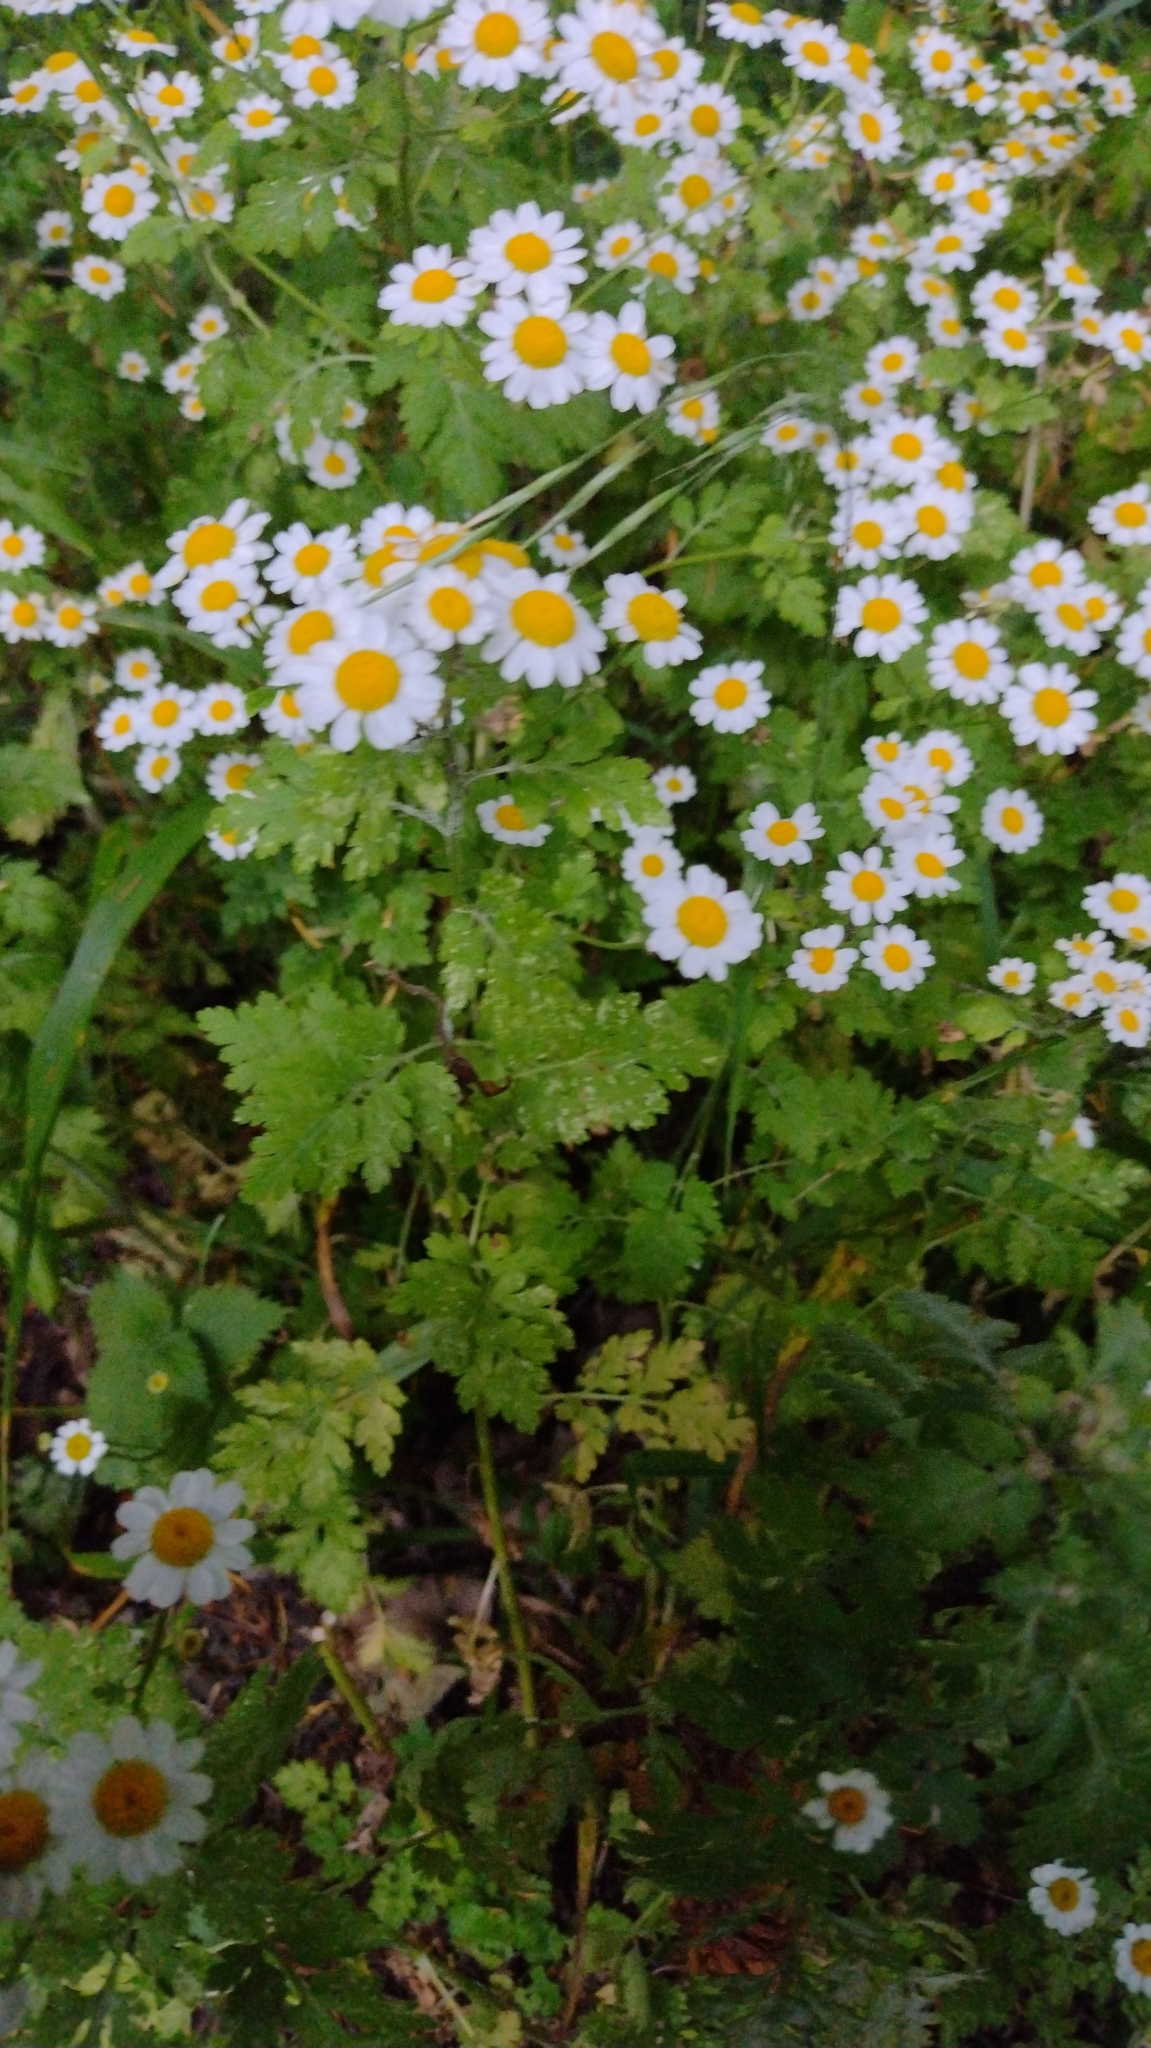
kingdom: Plantae
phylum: Tracheophyta
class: Magnoliopsida
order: Asterales
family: Asteraceae
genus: Tanacetum
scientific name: Tanacetum parthenium
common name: Feverfew
